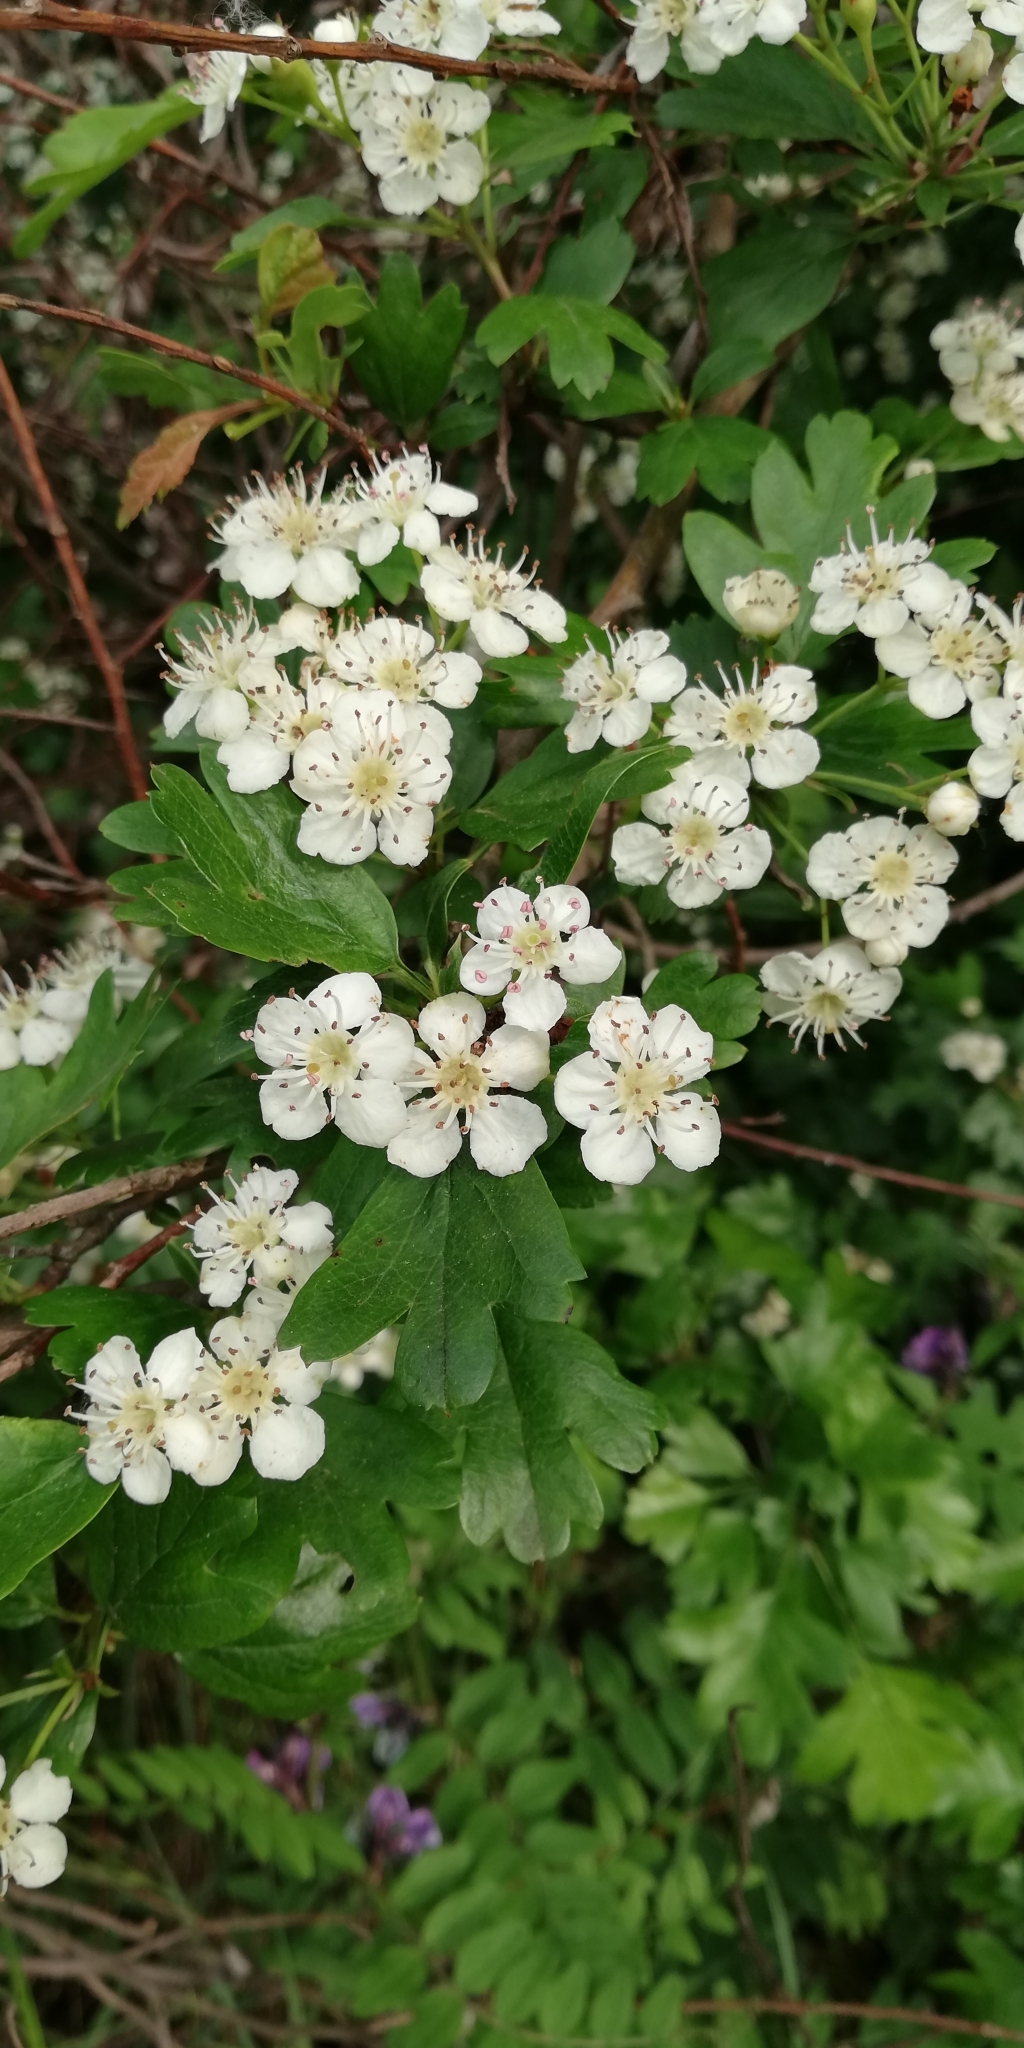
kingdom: Plantae
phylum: Tracheophyta
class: Magnoliopsida
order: Rosales
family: Rosaceae
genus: Crataegus
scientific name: Crataegus monogyna
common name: Hawthorn
